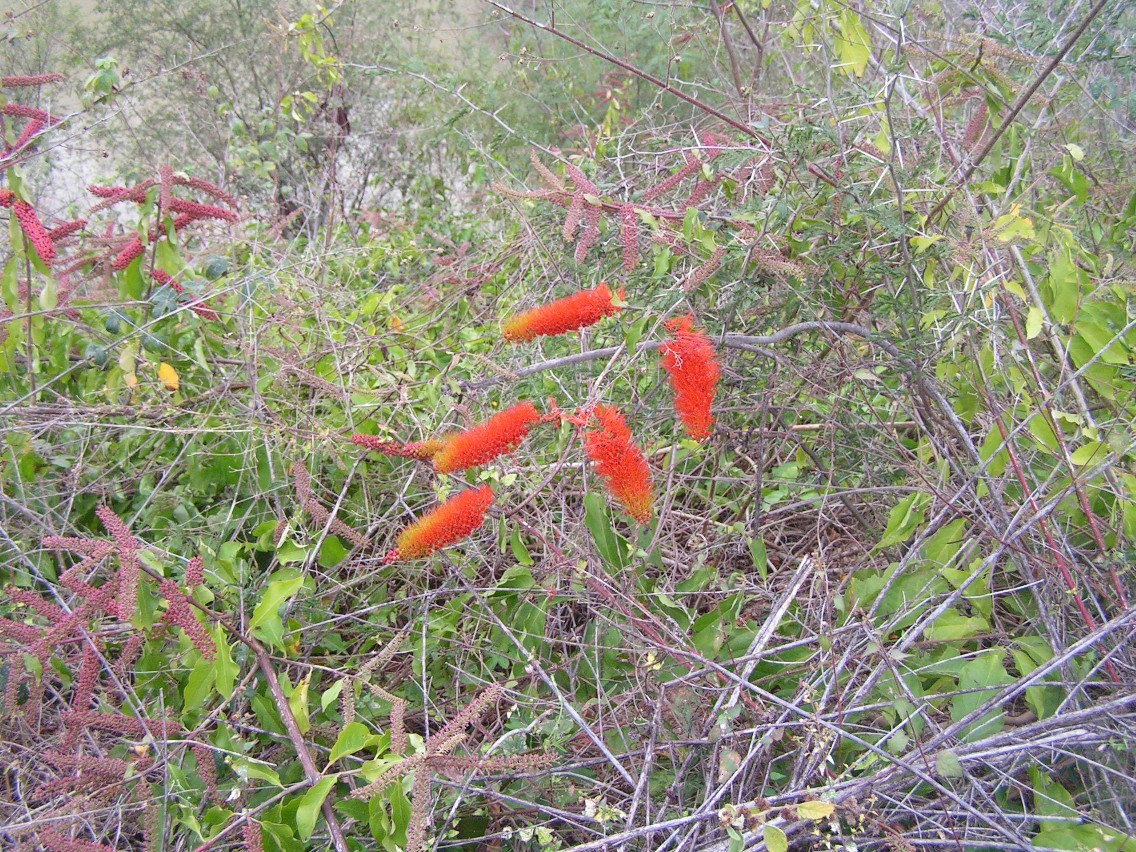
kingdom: Plantae
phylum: Tracheophyta
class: Magnoliopsida
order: Myrtales
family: Combretaceae
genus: Combretum
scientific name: Combretum farinosum
